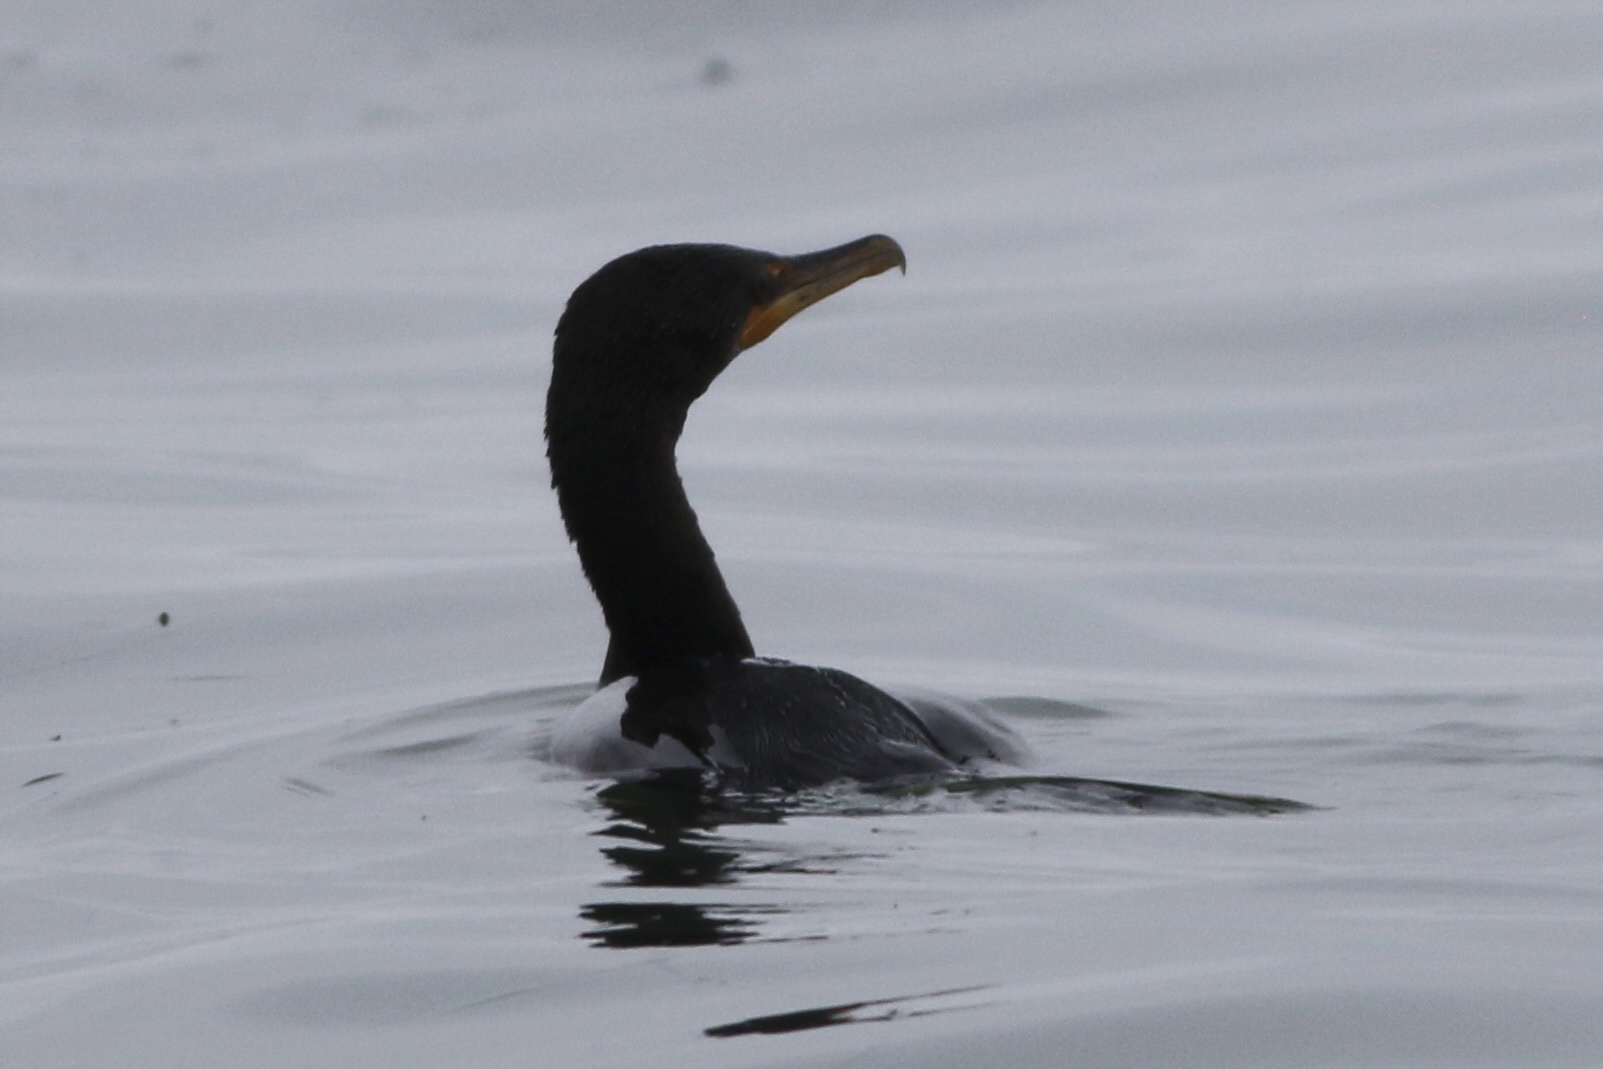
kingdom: Animalia
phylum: Chordata
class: Aves
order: Suliformes
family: Phalacrocoracidae
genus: Phalacrocorax
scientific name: Phalacrocorax auritus
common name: Double-crested cormorant
